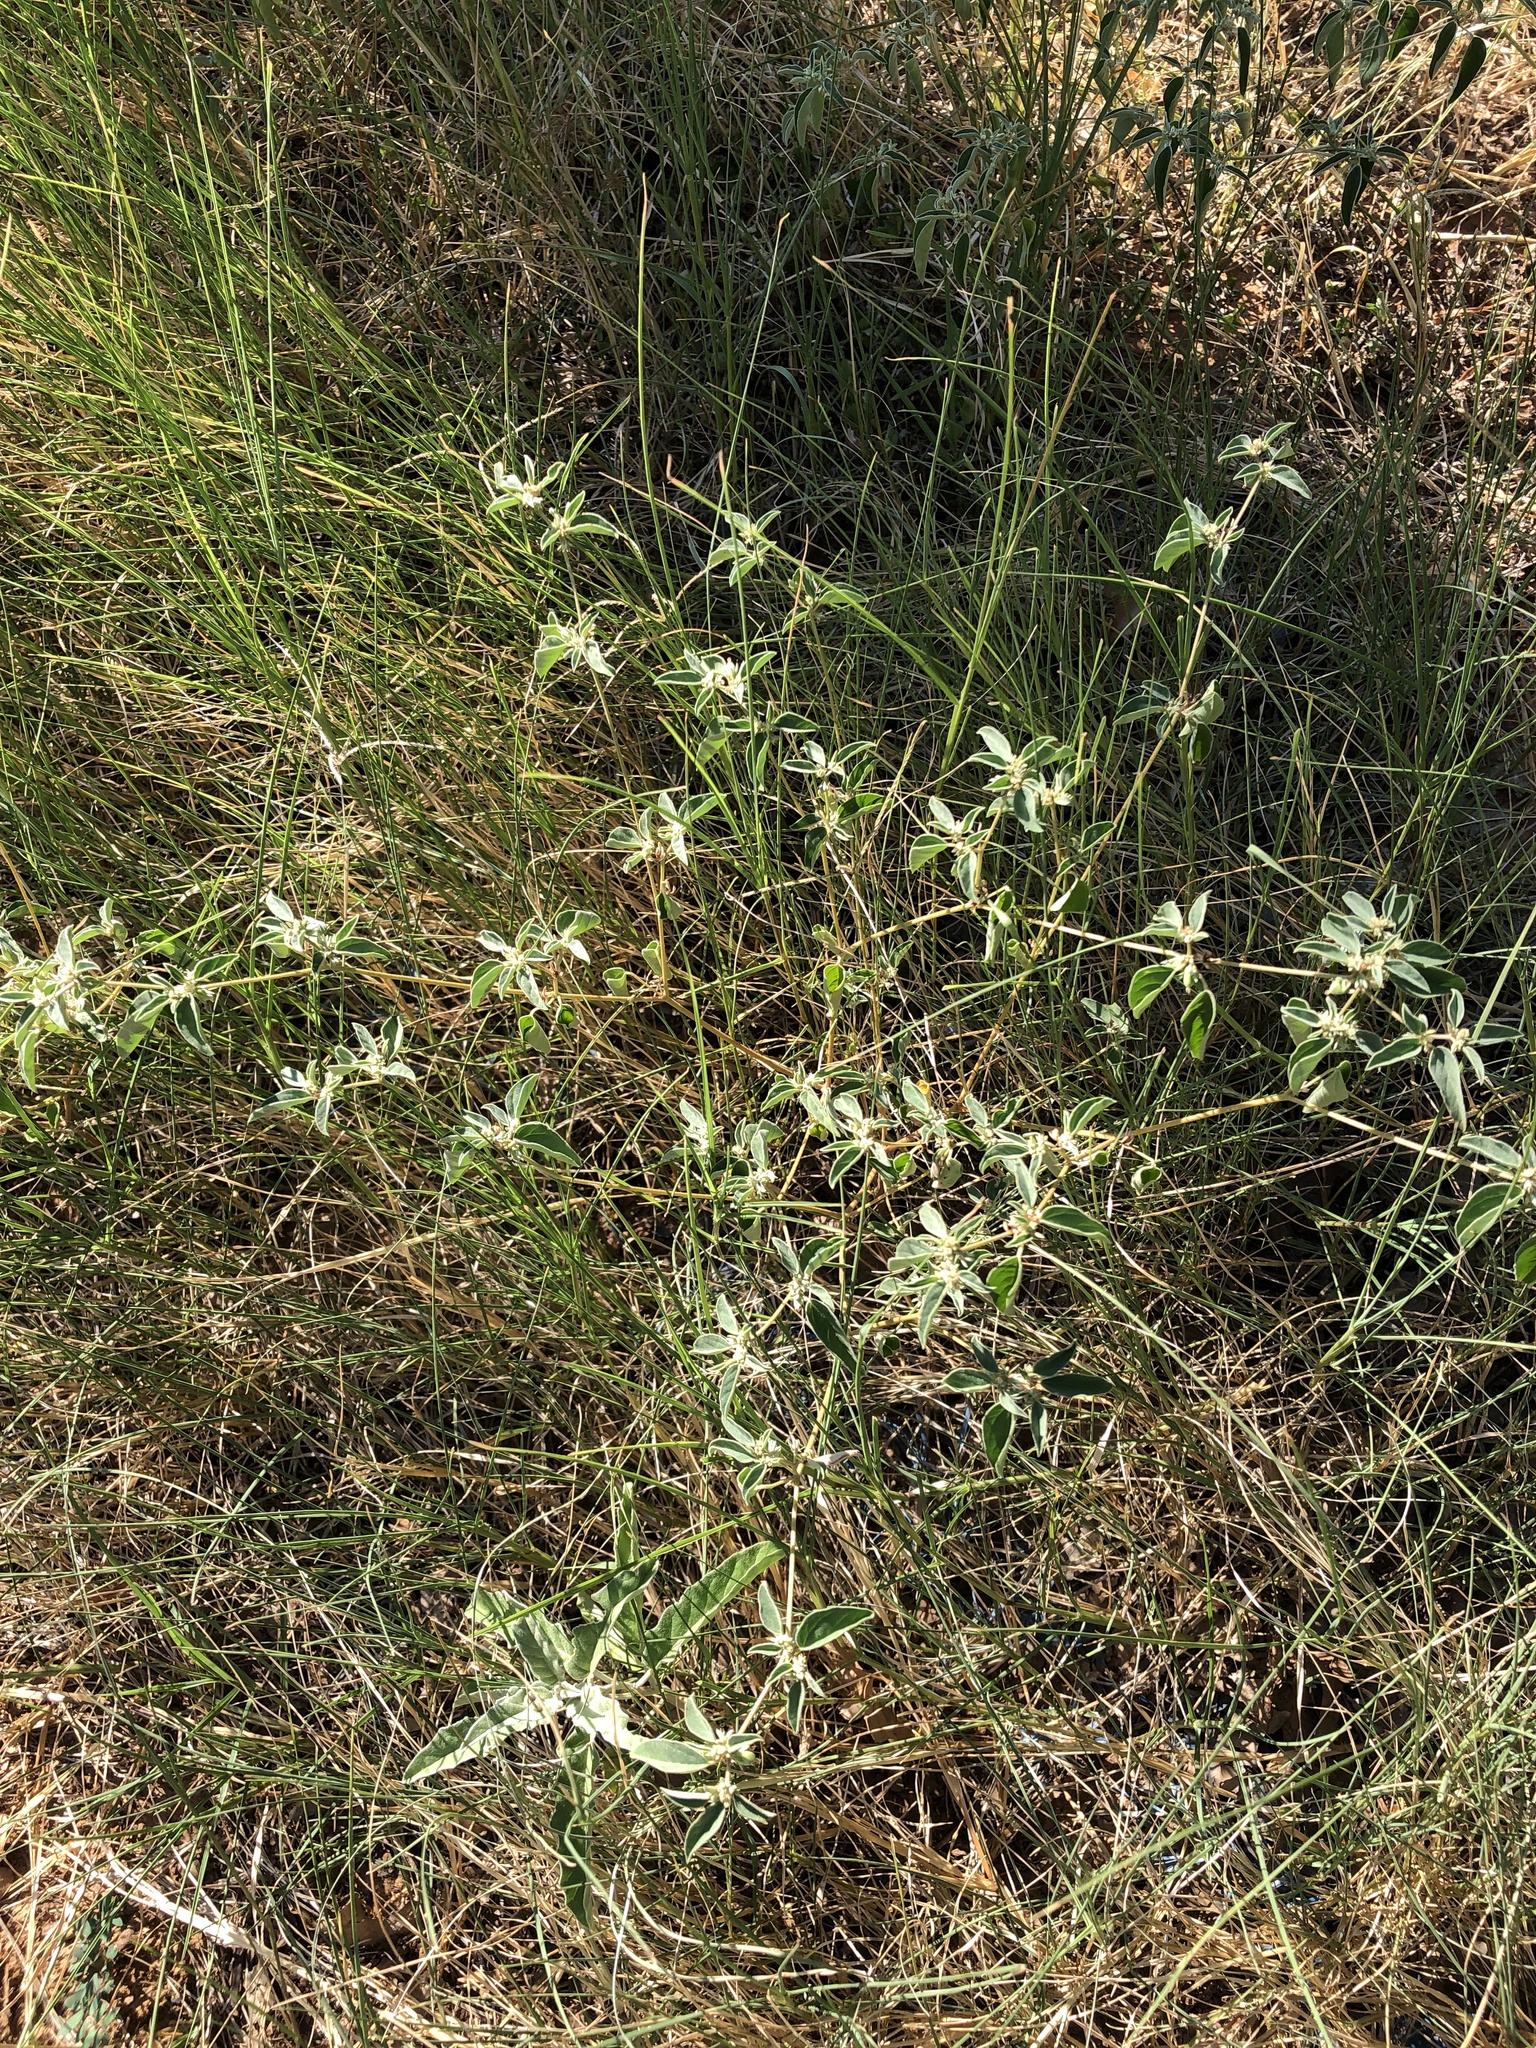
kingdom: Plantae
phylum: Tracheophyta
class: Magnoliopsida
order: Malpighiales
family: Euphorbiaceae
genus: Croton
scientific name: Croton monanthogynus
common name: One-seed croton
